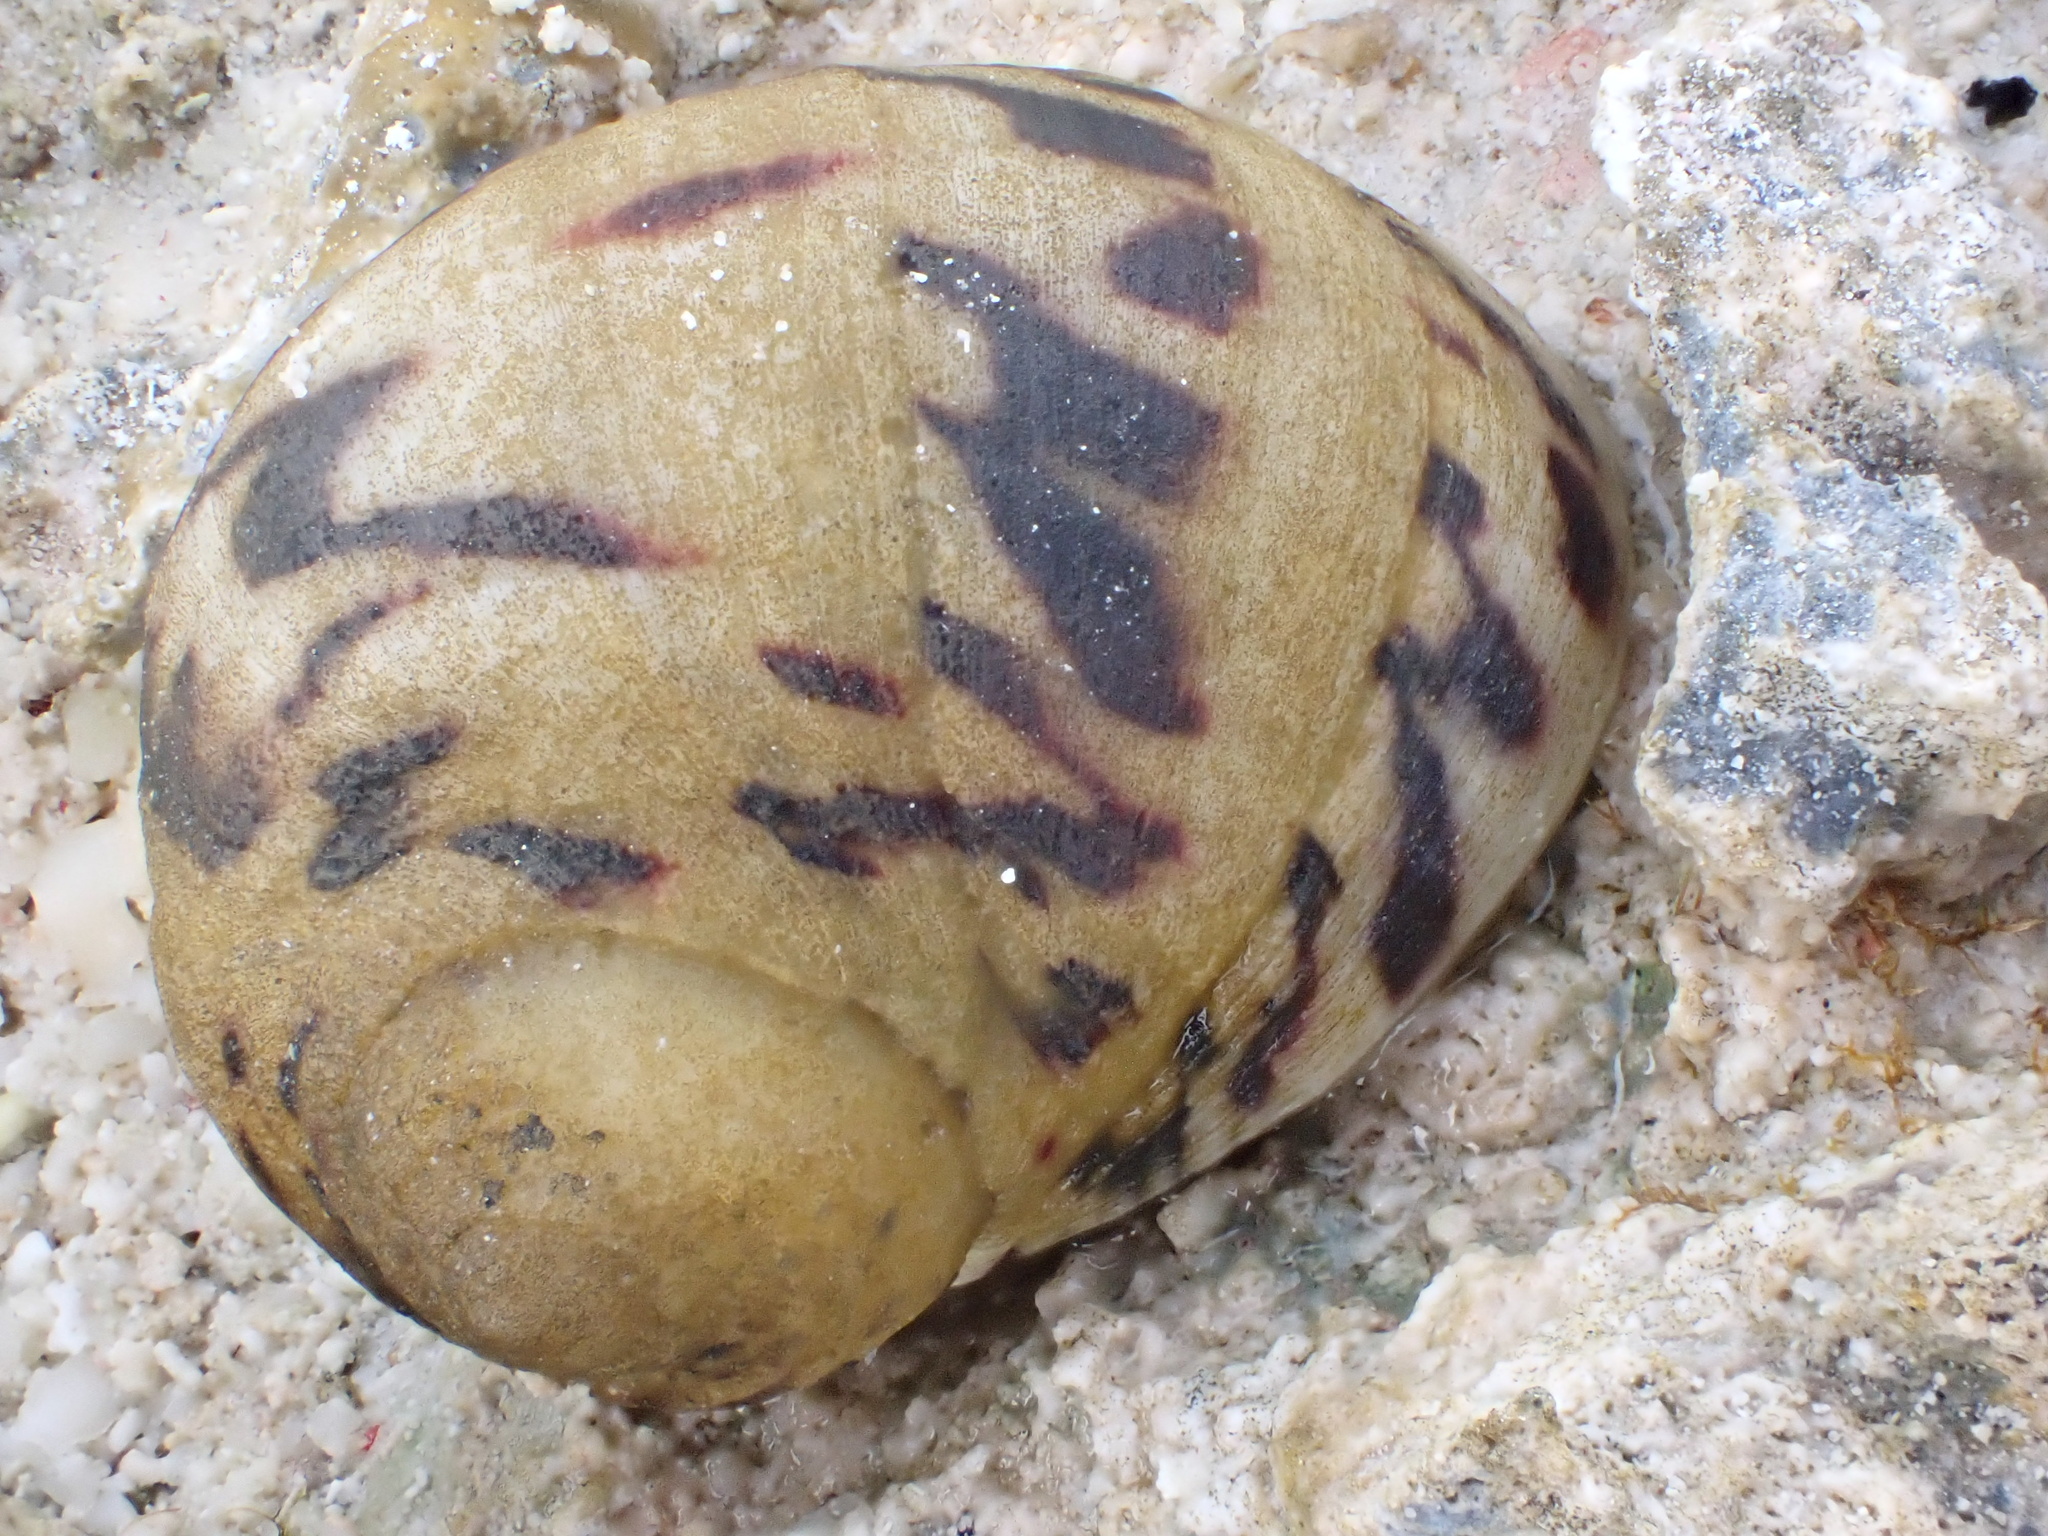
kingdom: Animalia
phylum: Mollusca
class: Gastropoda
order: Cycloneritida
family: Neritidae
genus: Nerita
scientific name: Nerita peloronta
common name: Bleeding tooth
